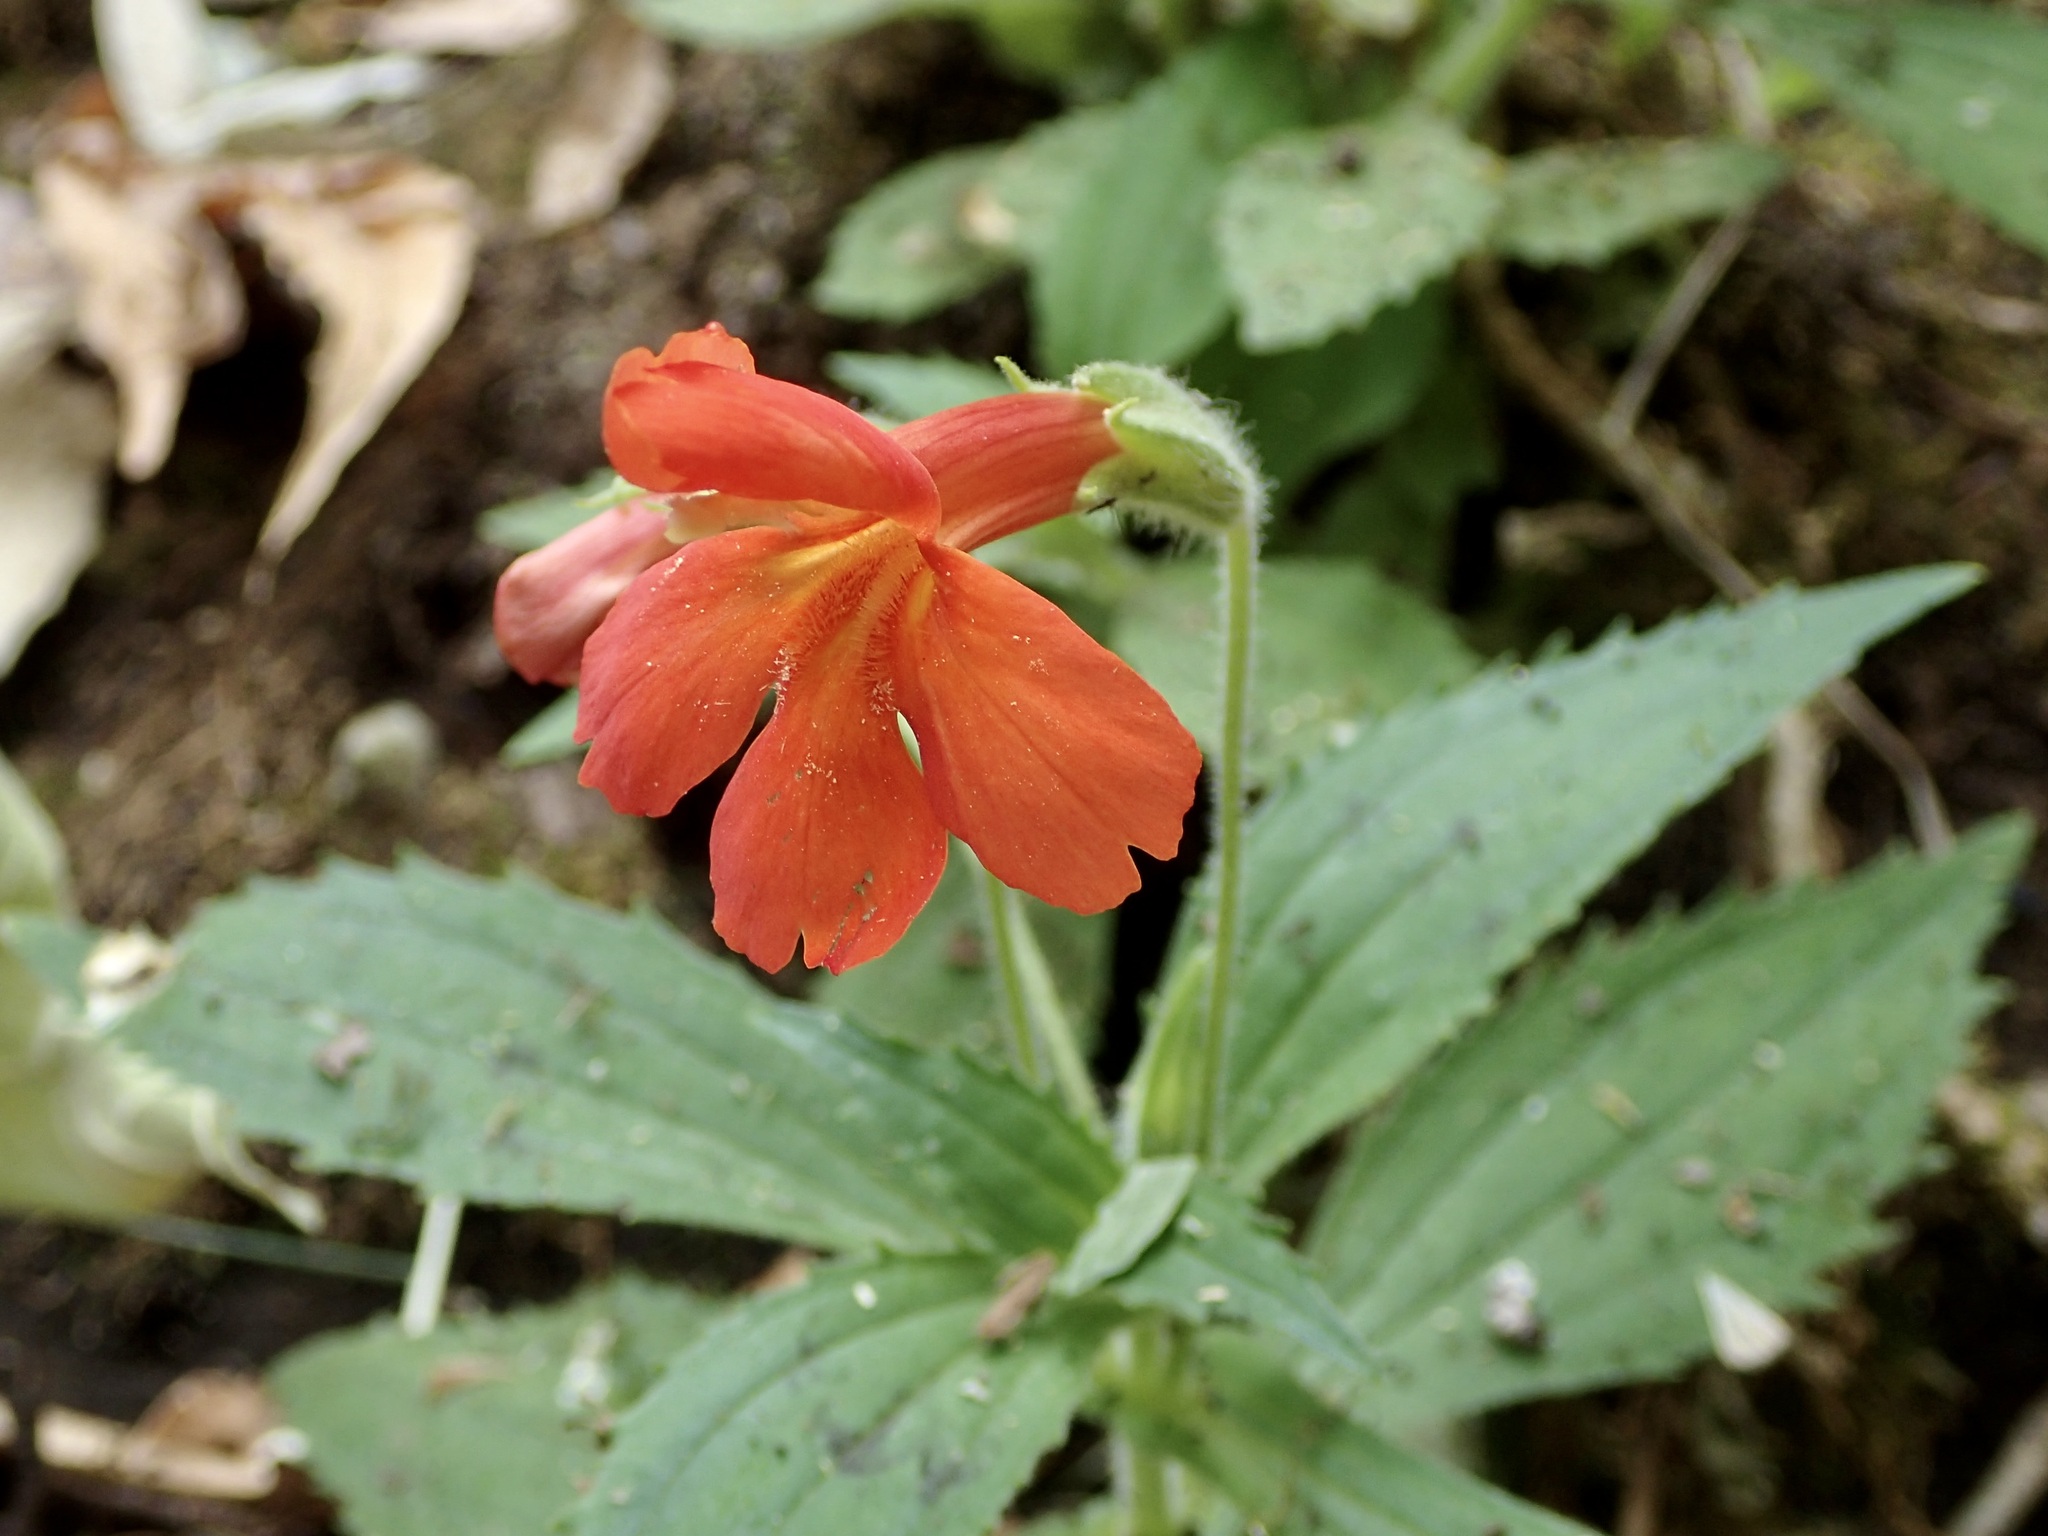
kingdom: Plantae
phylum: Tracheophyta
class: Magnoliopsida
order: Lamiales
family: Phrymaceae
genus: Erythranthe
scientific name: Erythranthe verbenacea
